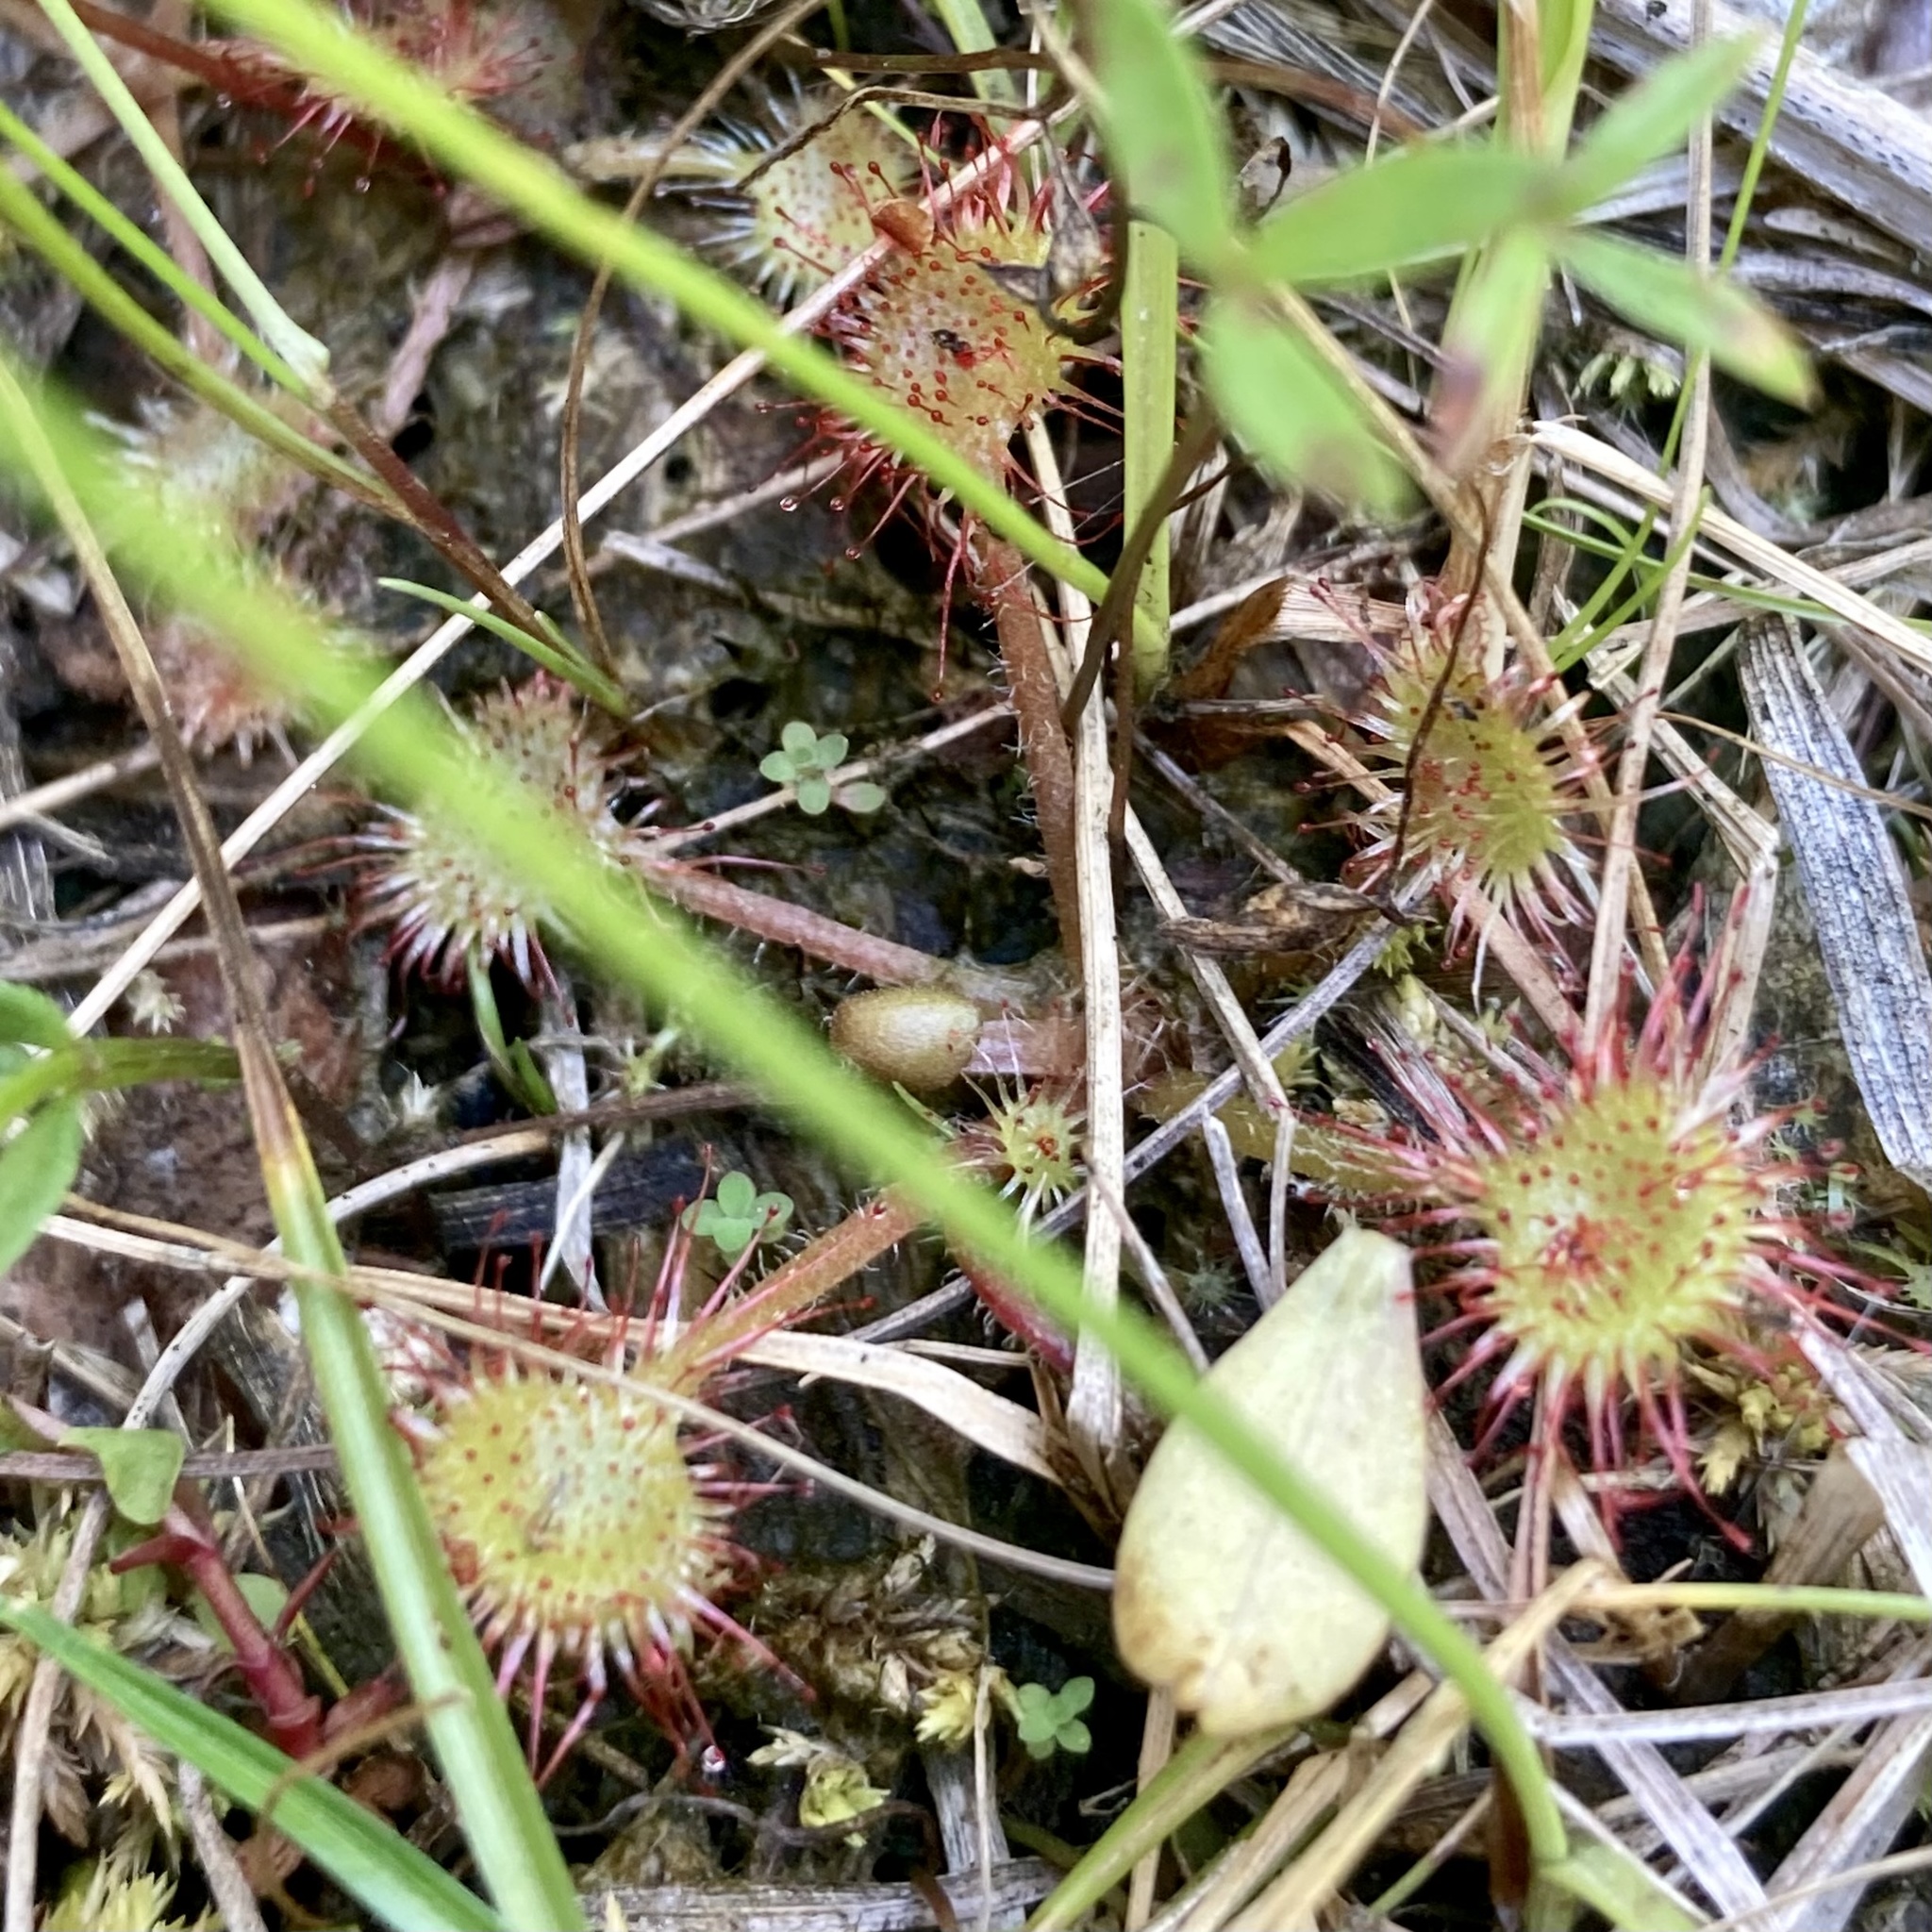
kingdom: Plantae
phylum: Tracheophyta
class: Magnoliopsida
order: Caryophyllales
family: Droseraceae
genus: Drosera
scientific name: Drosera rotundifolia
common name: Round-leaved sundew
